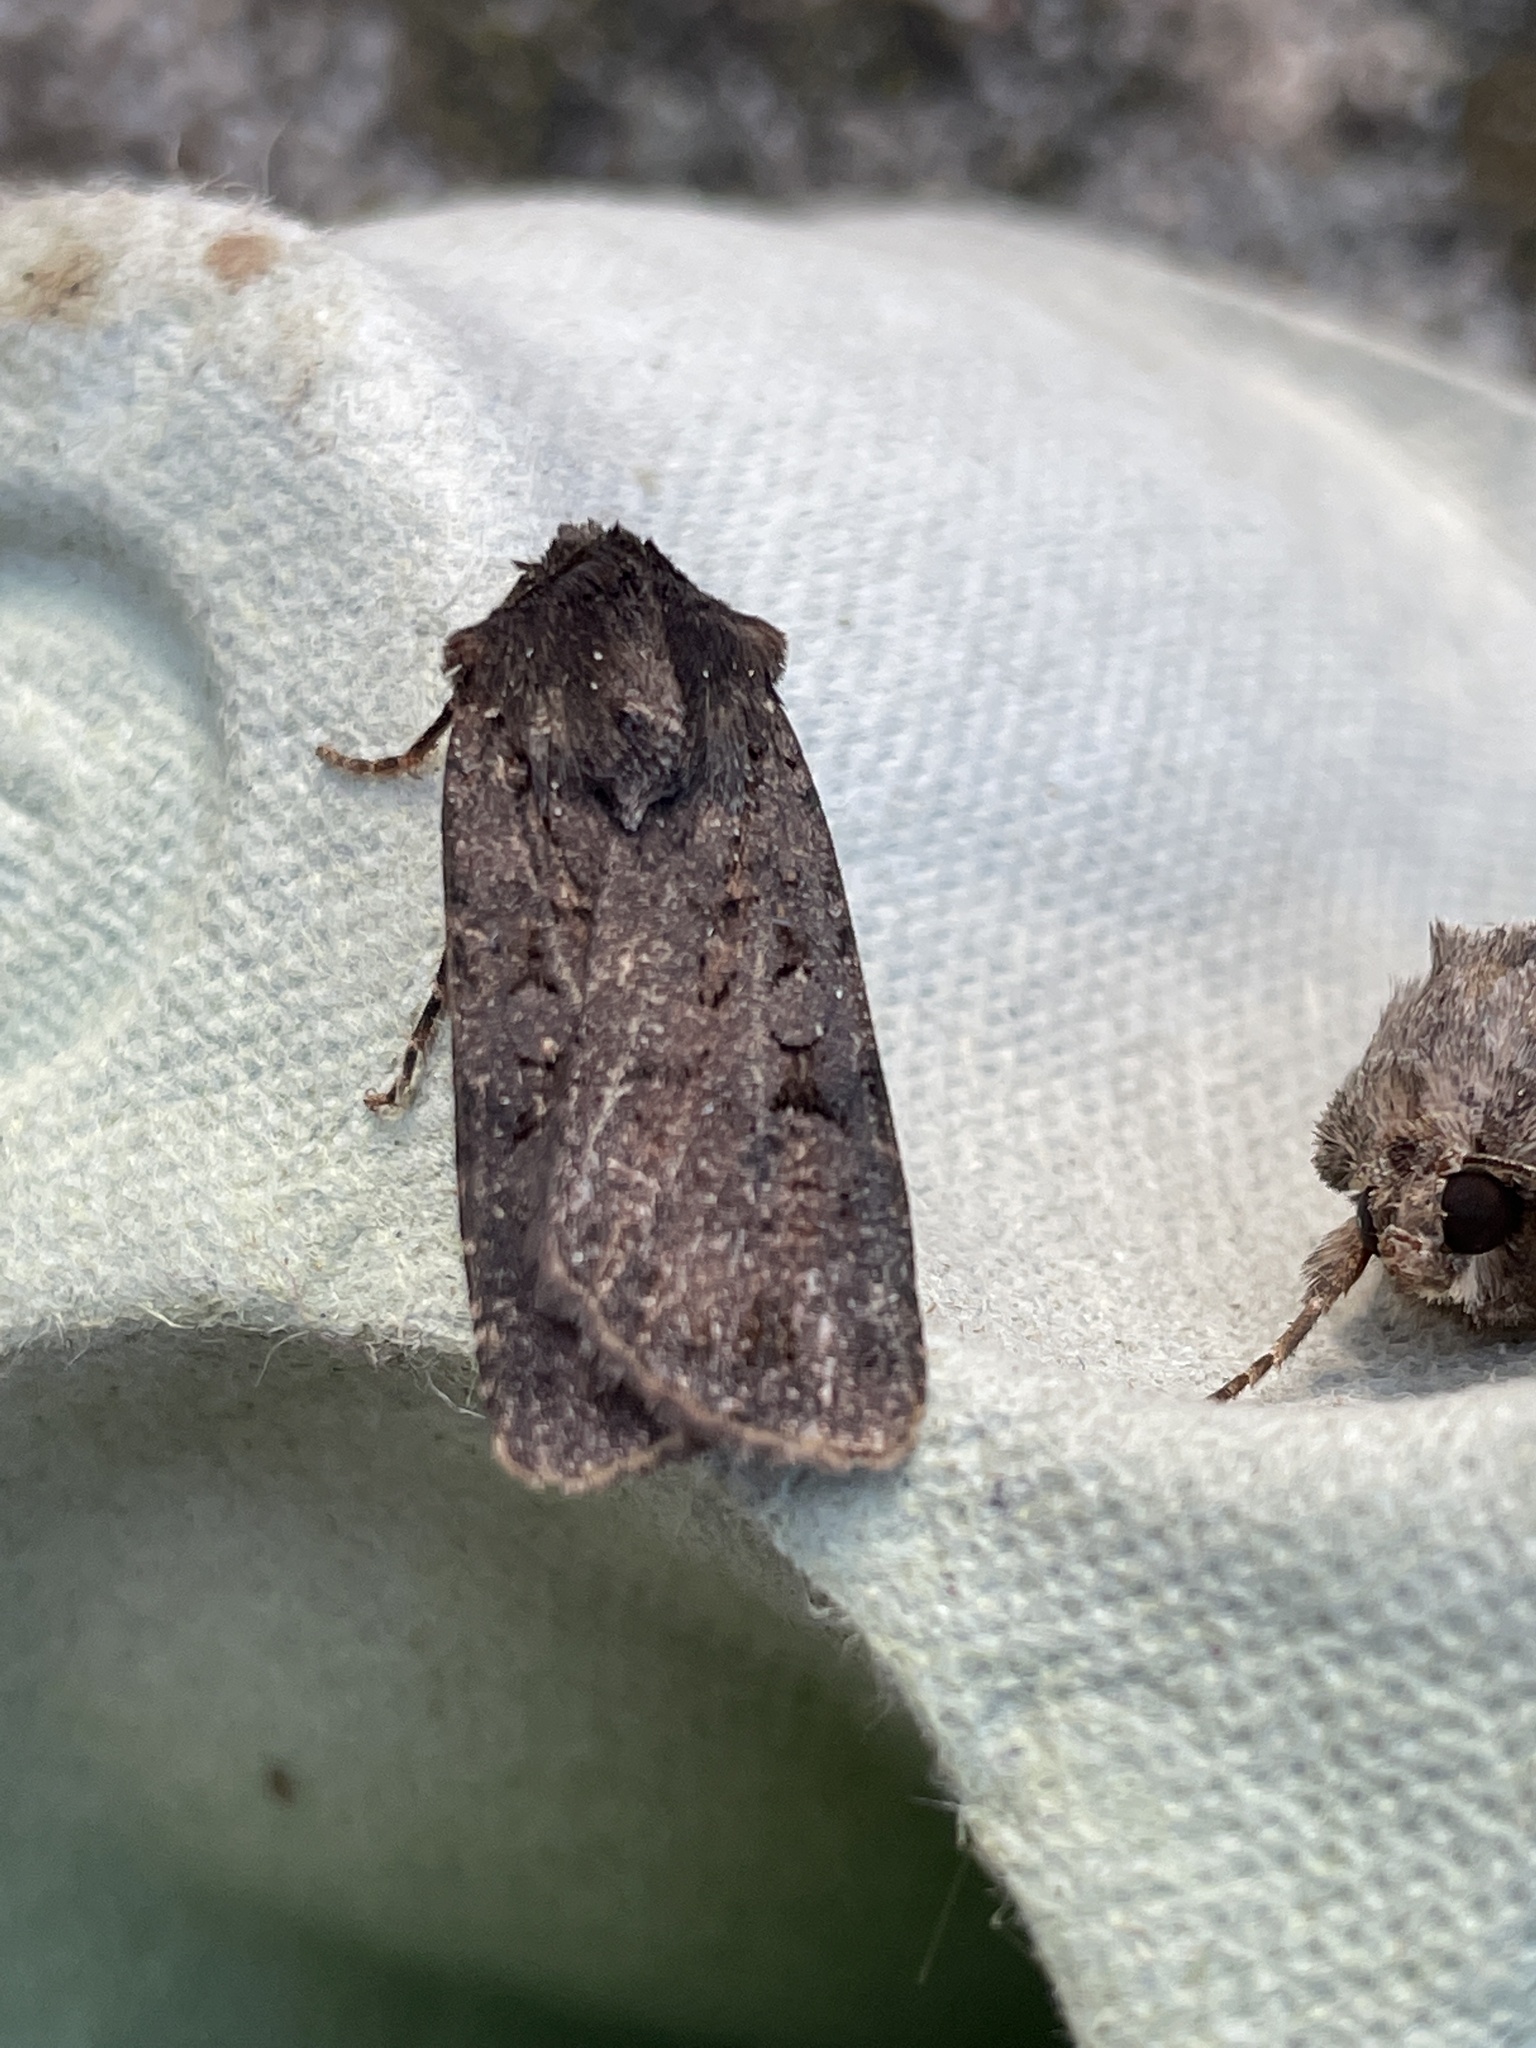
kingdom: Animalia
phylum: Arthropoda
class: Insecta
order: Lepidoptera
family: Noctuidae
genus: Euxoa
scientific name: Euxoa nigricans
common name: Garden dart
